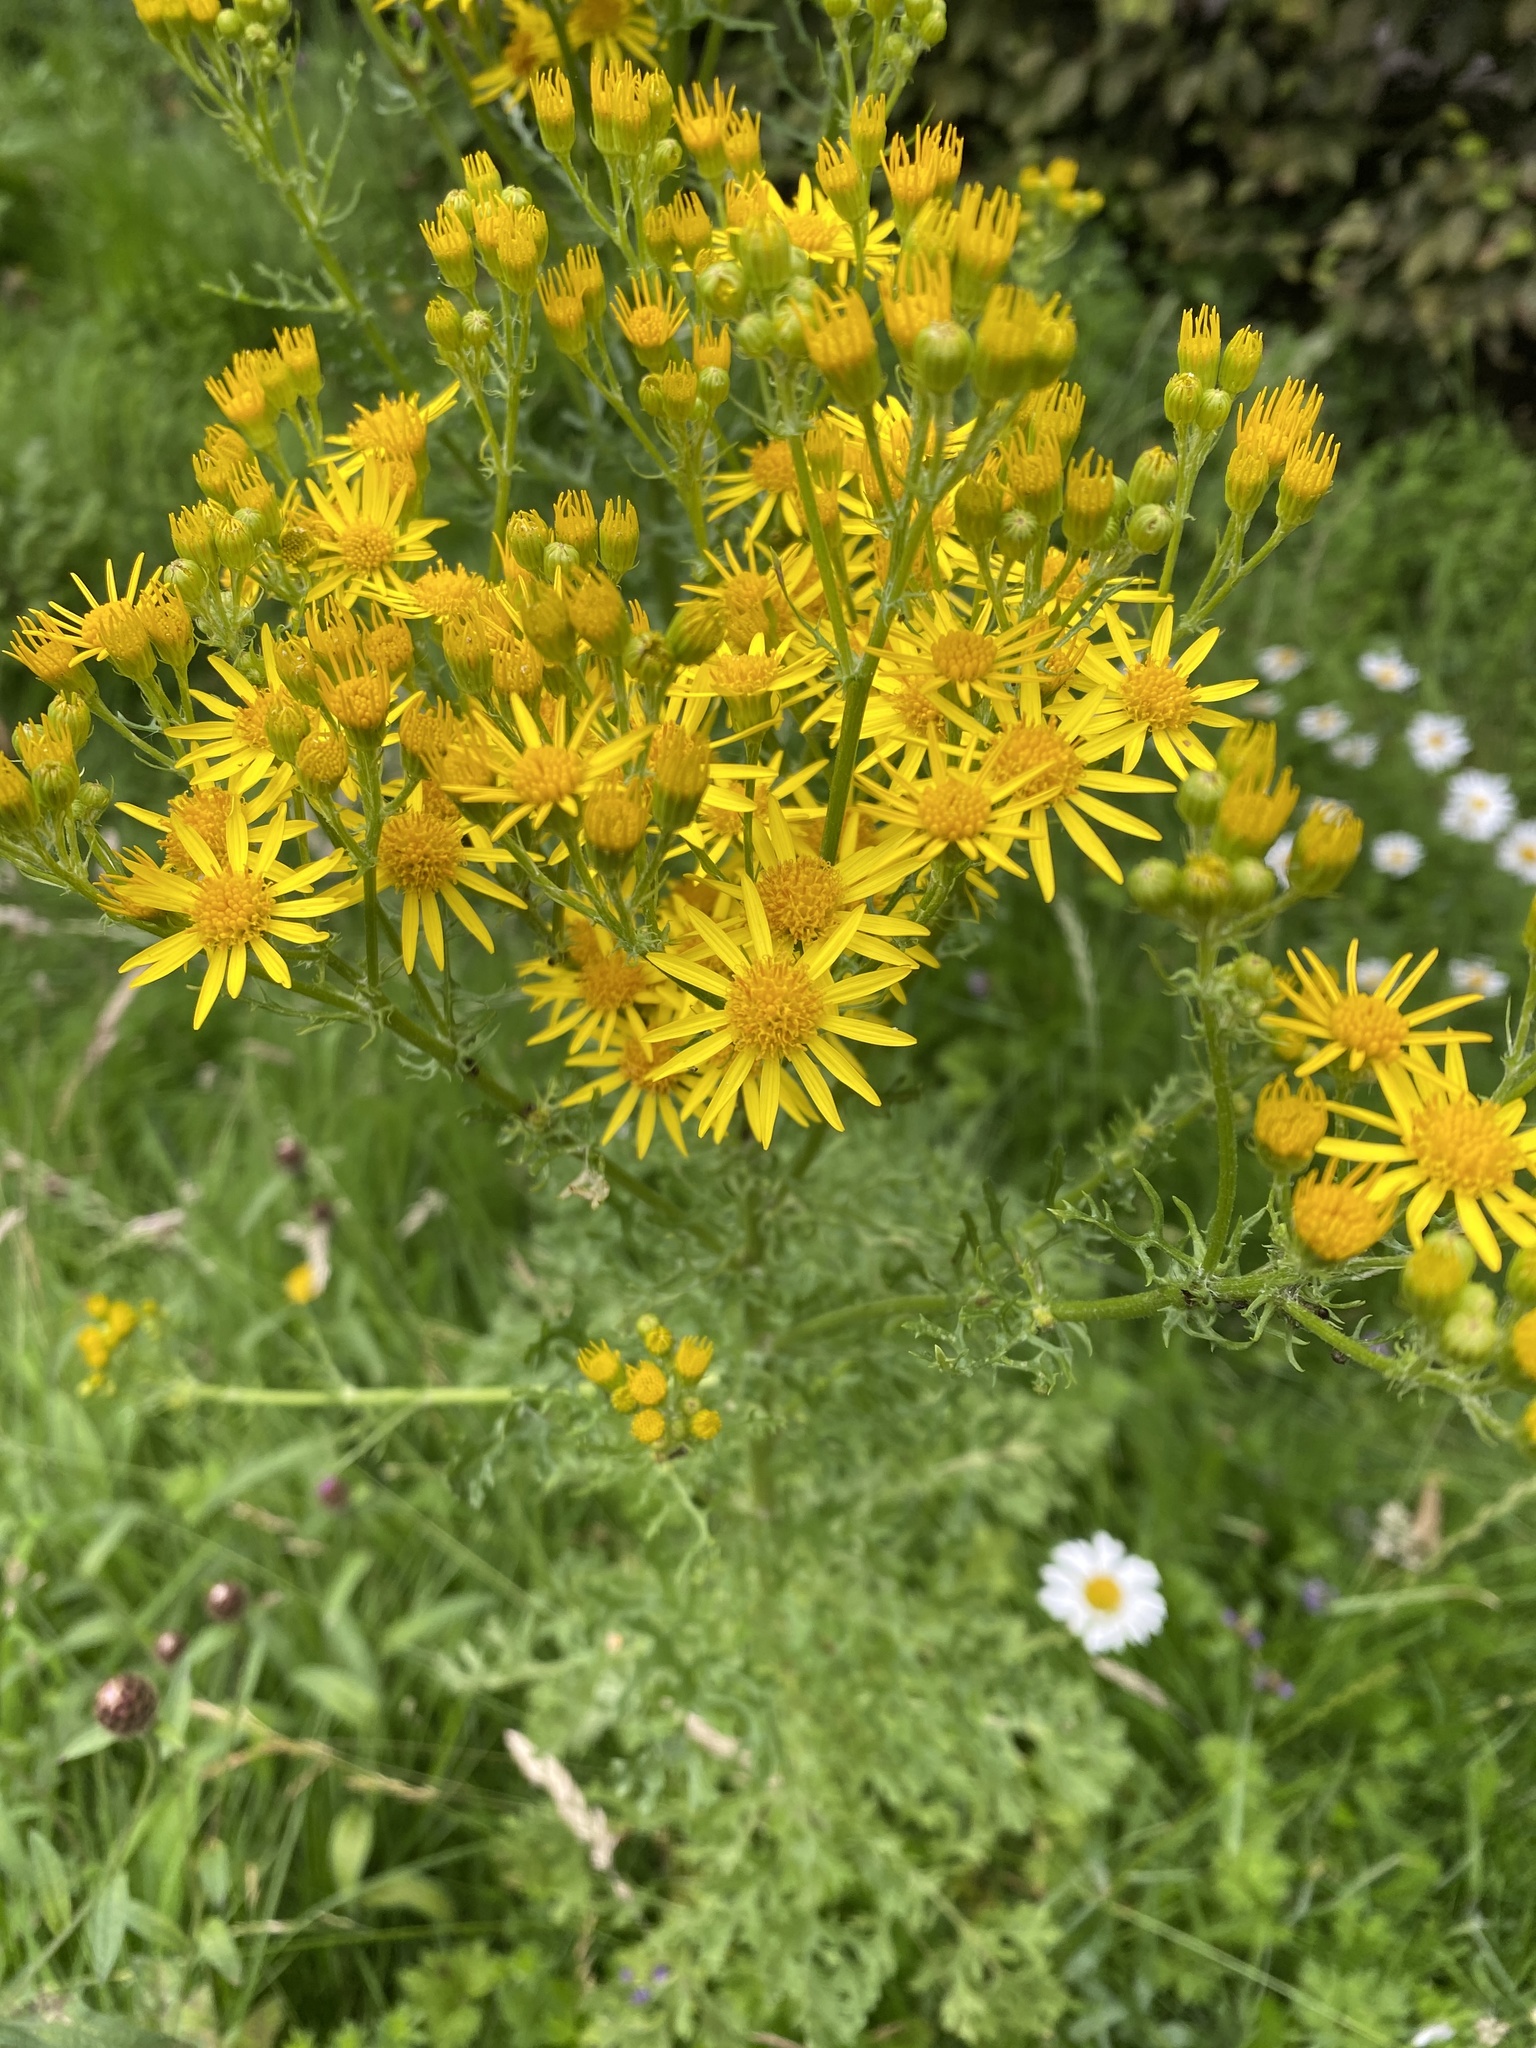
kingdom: Plantae
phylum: Tracheophyta
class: Magnoliopsida
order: Asterales
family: Asteraceae
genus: Jacobaea
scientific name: Jacobaea vulgaris
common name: Stinking willie
